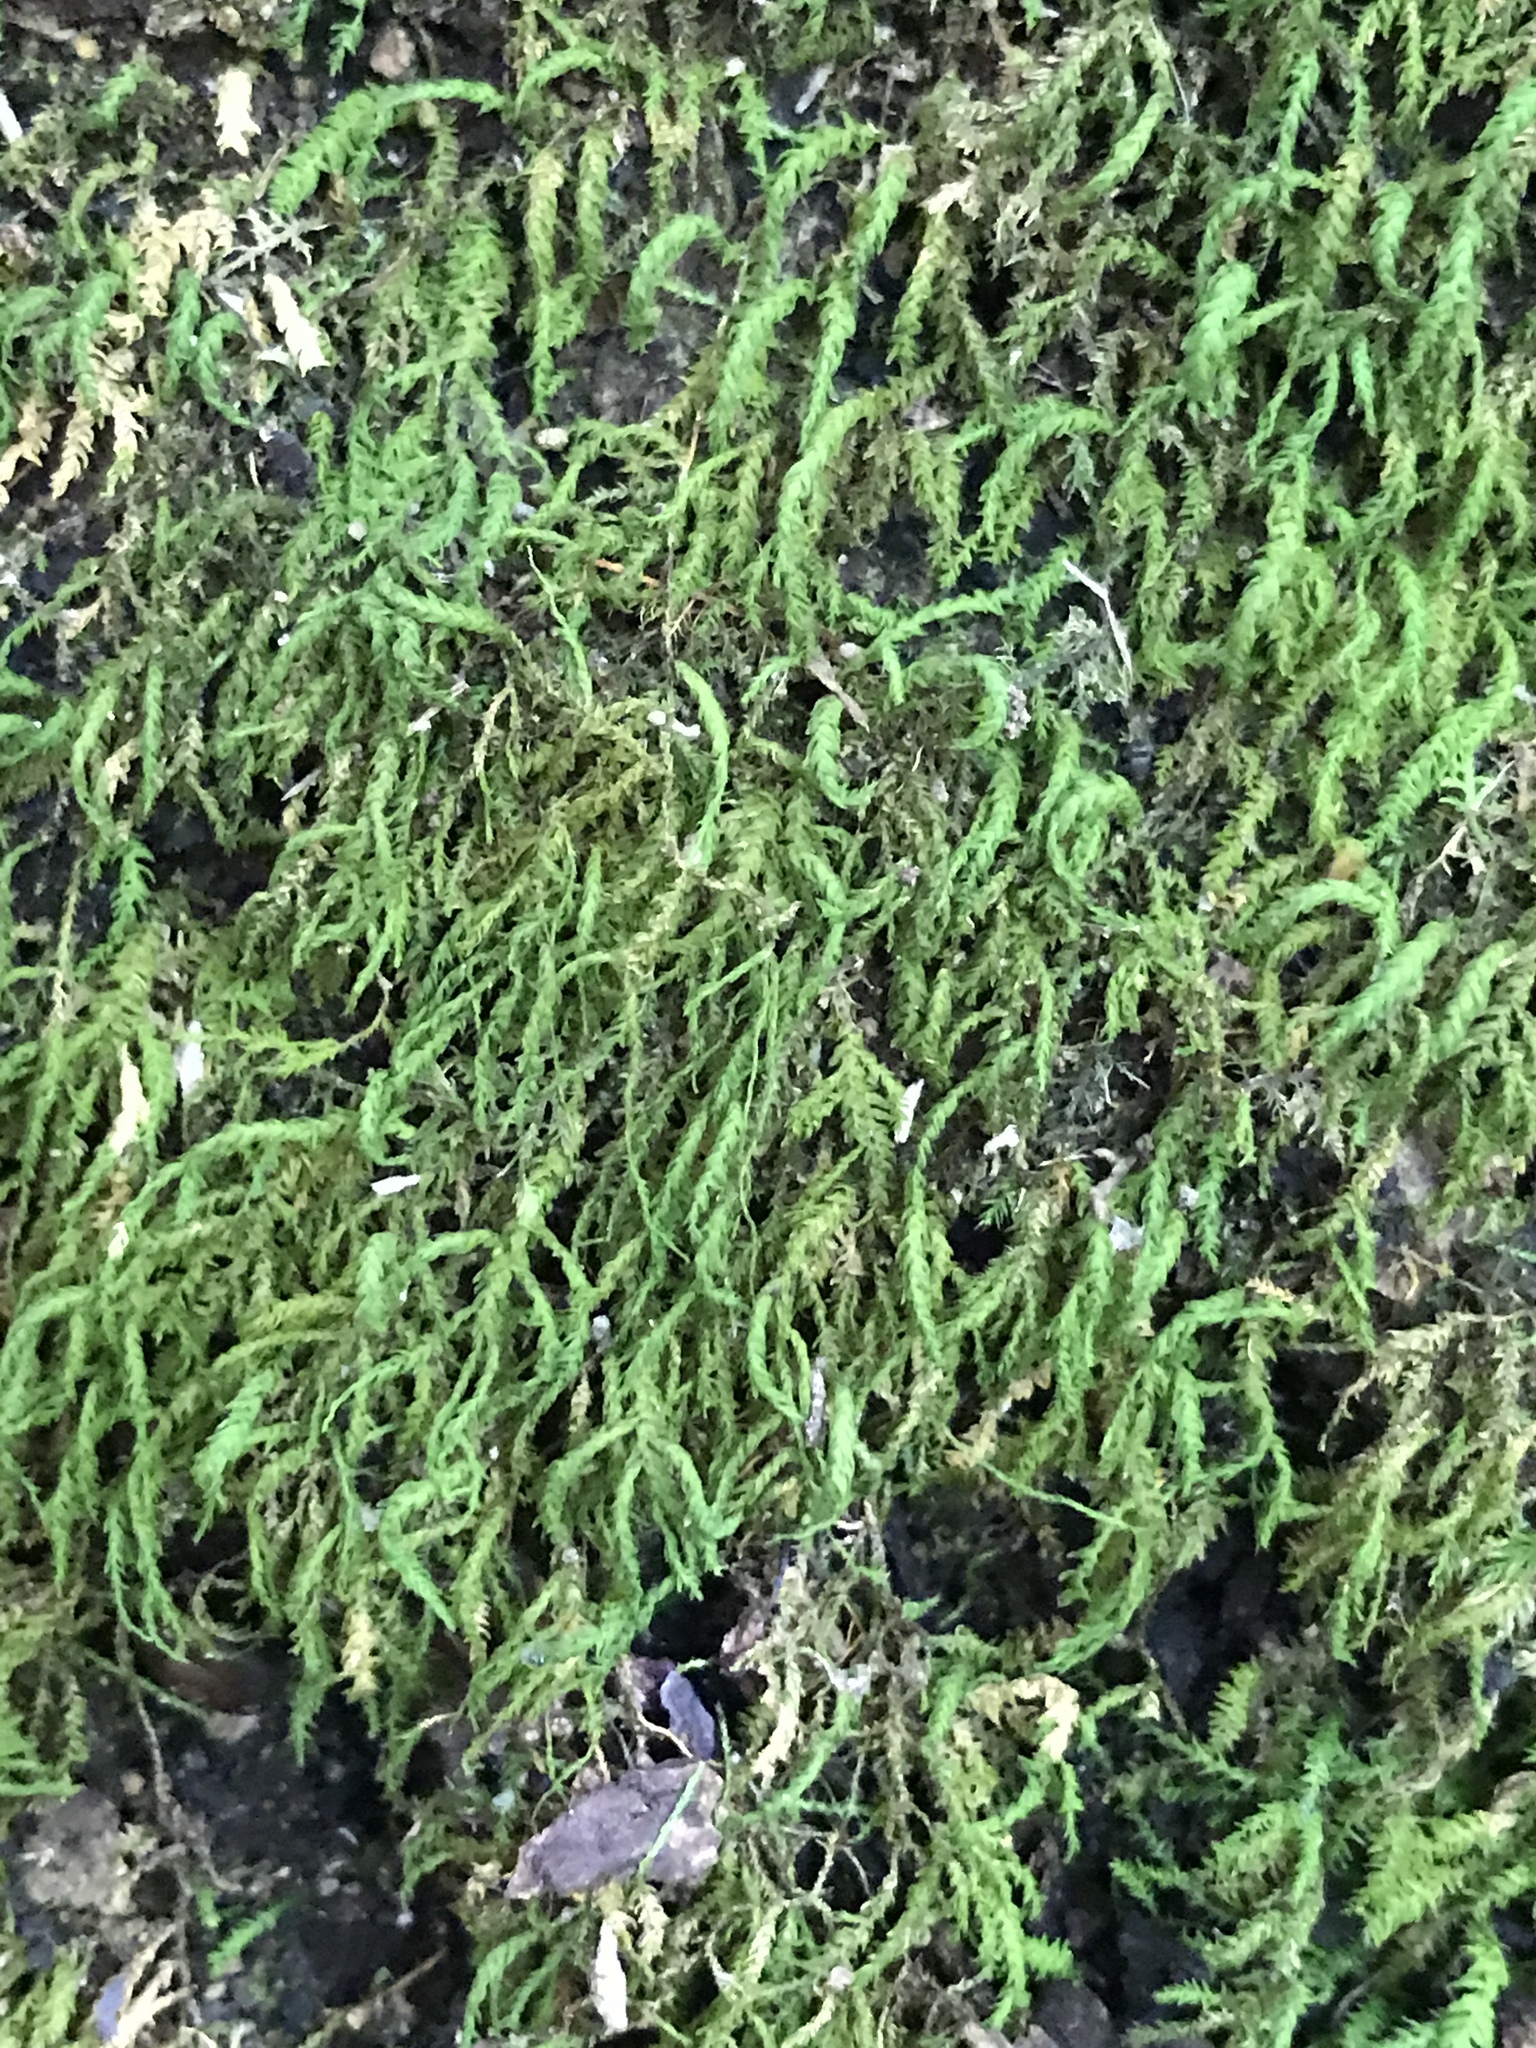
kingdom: Plantae
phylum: Bryophyta
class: Bryopsida
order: Hypnales
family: Neckeraceae
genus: Pseudanomodon
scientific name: Pseudanomodon attenuatus
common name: Tree-skirt moss
